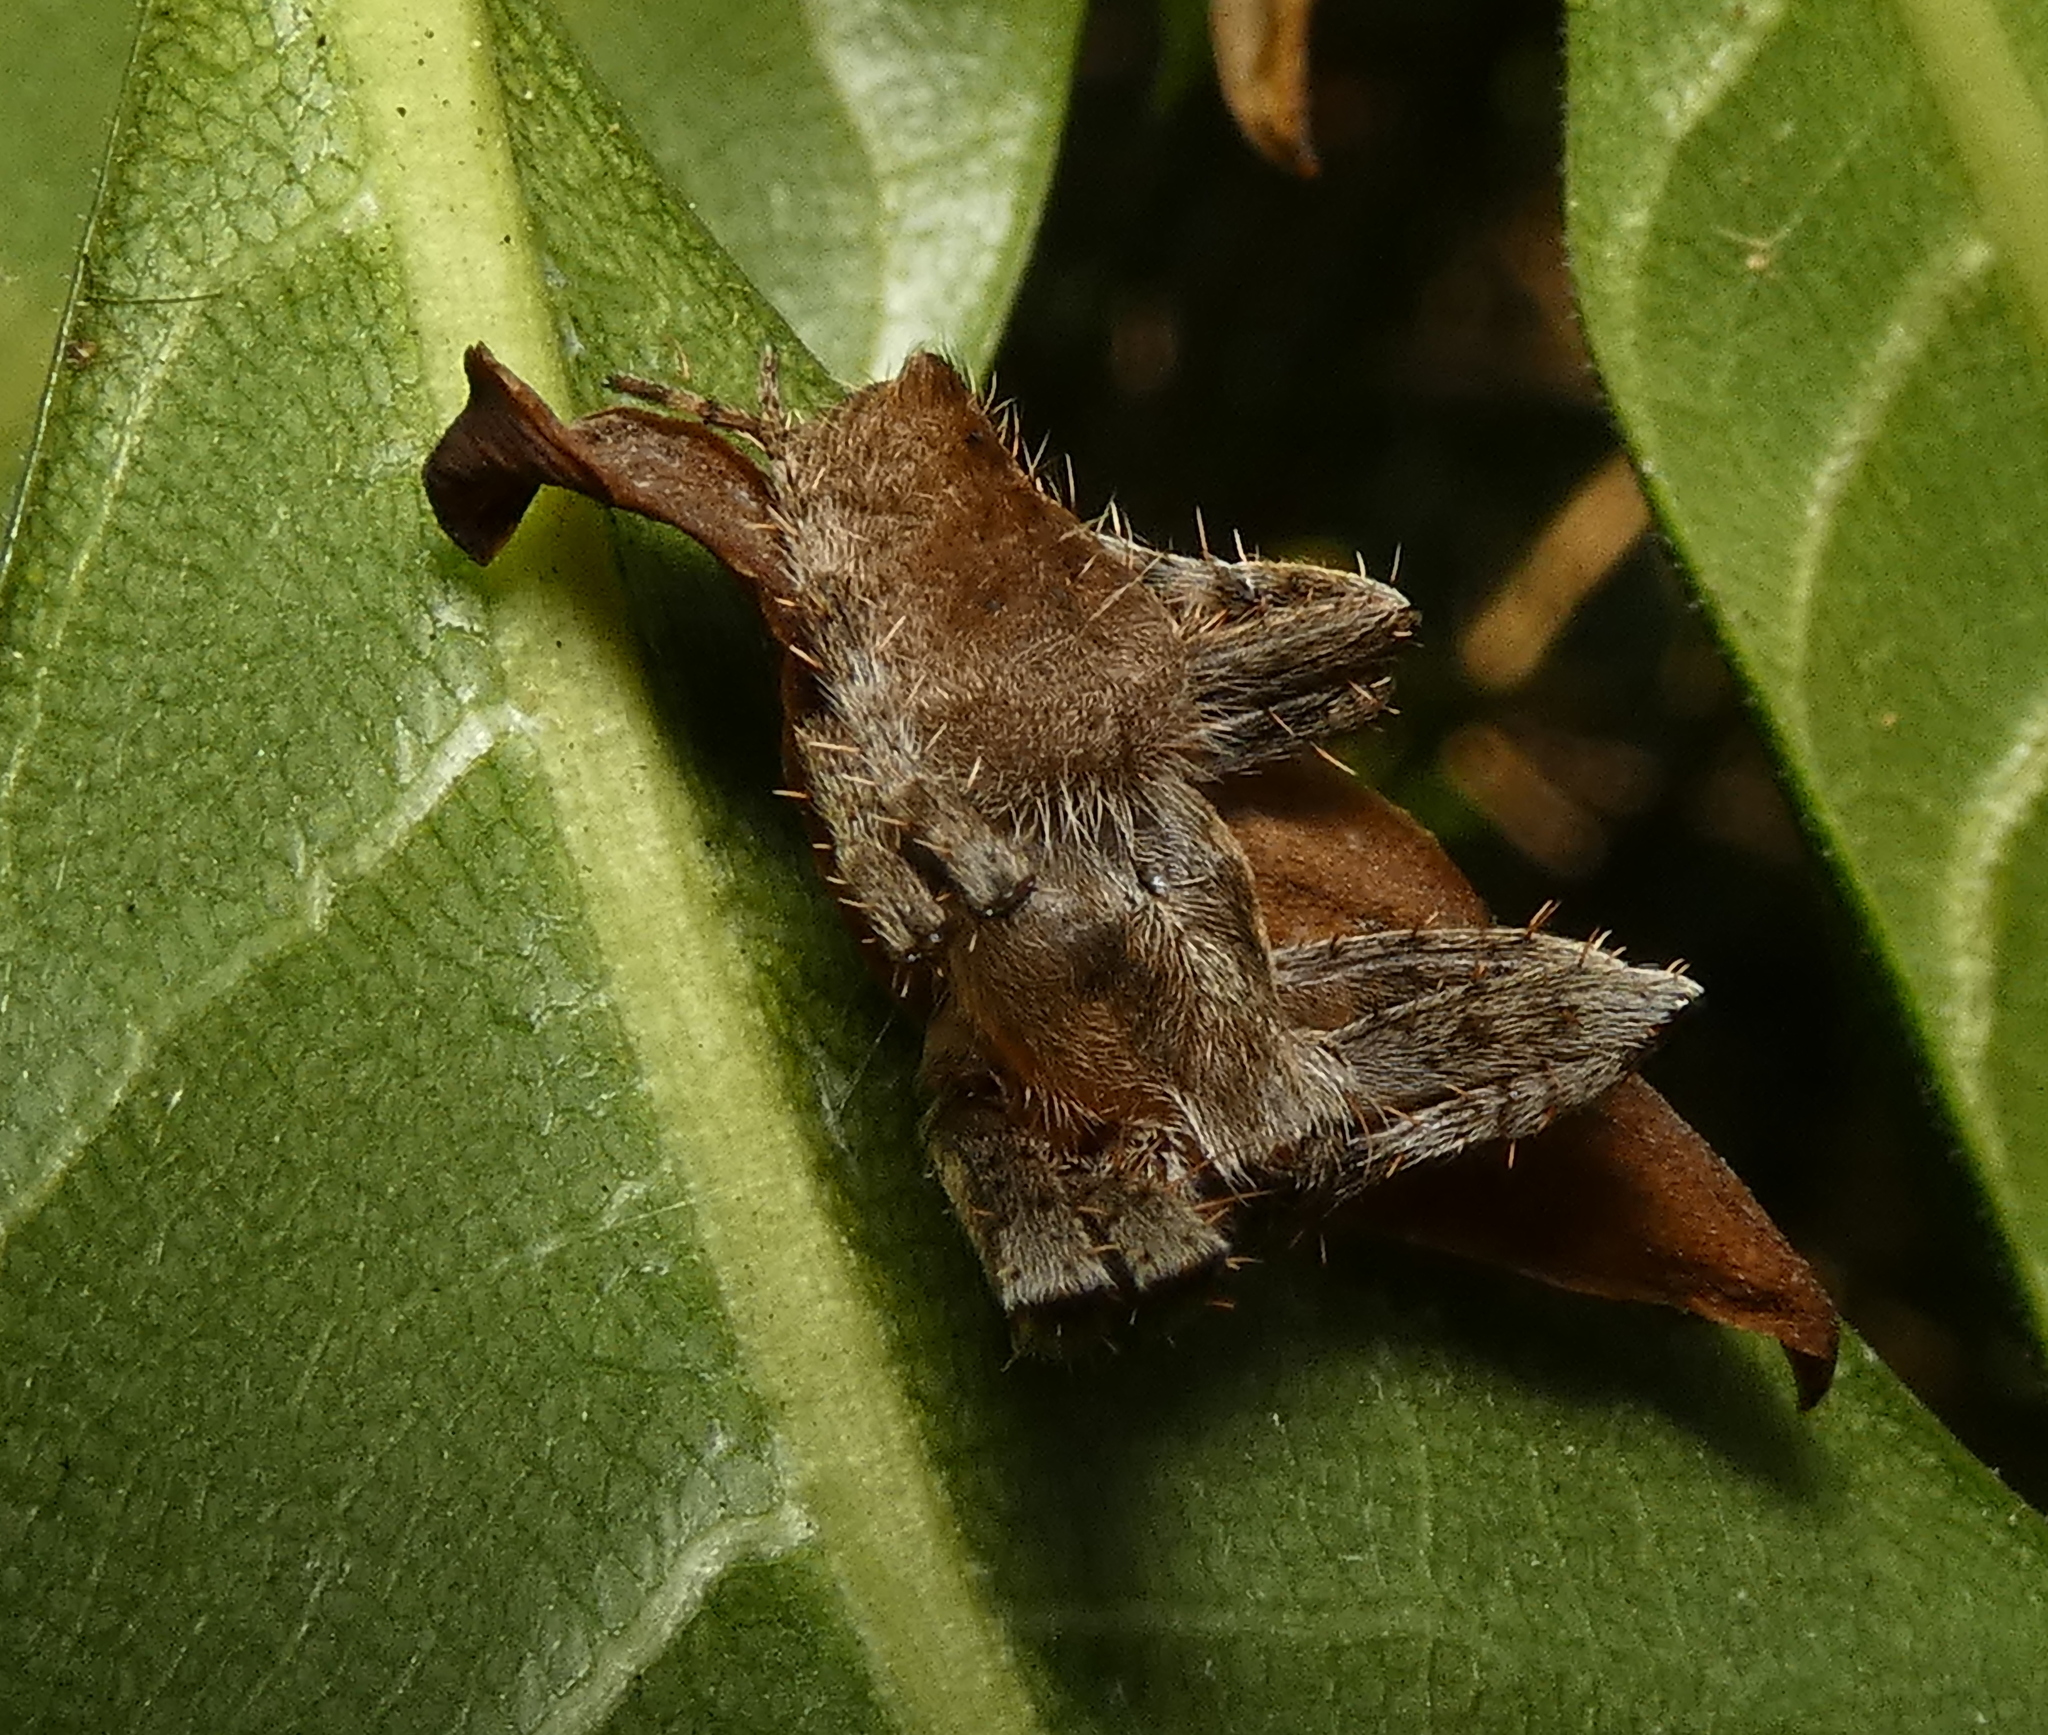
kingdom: Animalia
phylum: Arthropoda
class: Arachnida
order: Araneae
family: Araneidae
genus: Eriophora
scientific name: Eriophora edax
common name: Orb weavers
